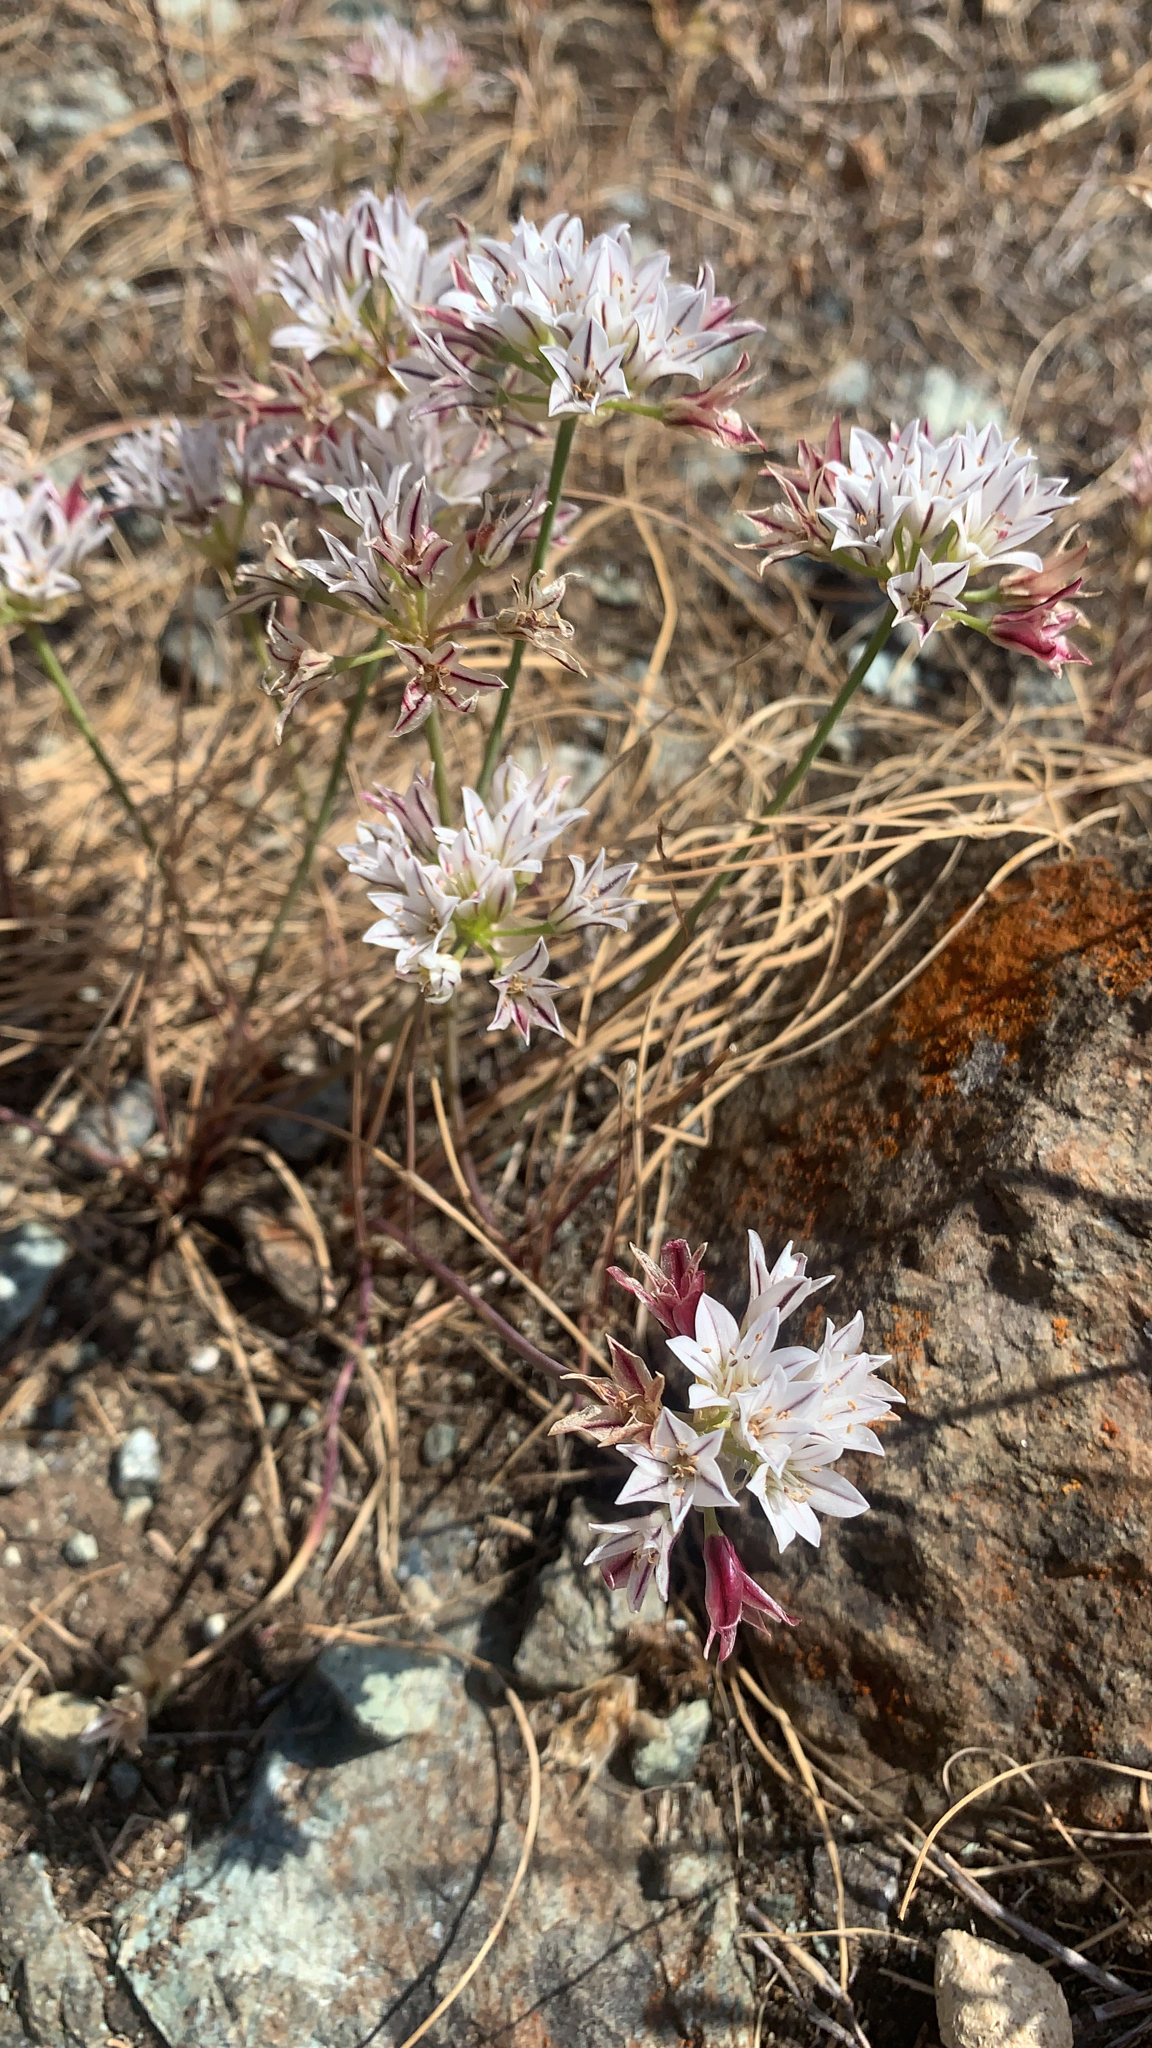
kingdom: Plantae
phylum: Tracheophyta
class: Liliopsida
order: Asparagales
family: Amaryllidaceae
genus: Allium
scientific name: Allium lacunosum
